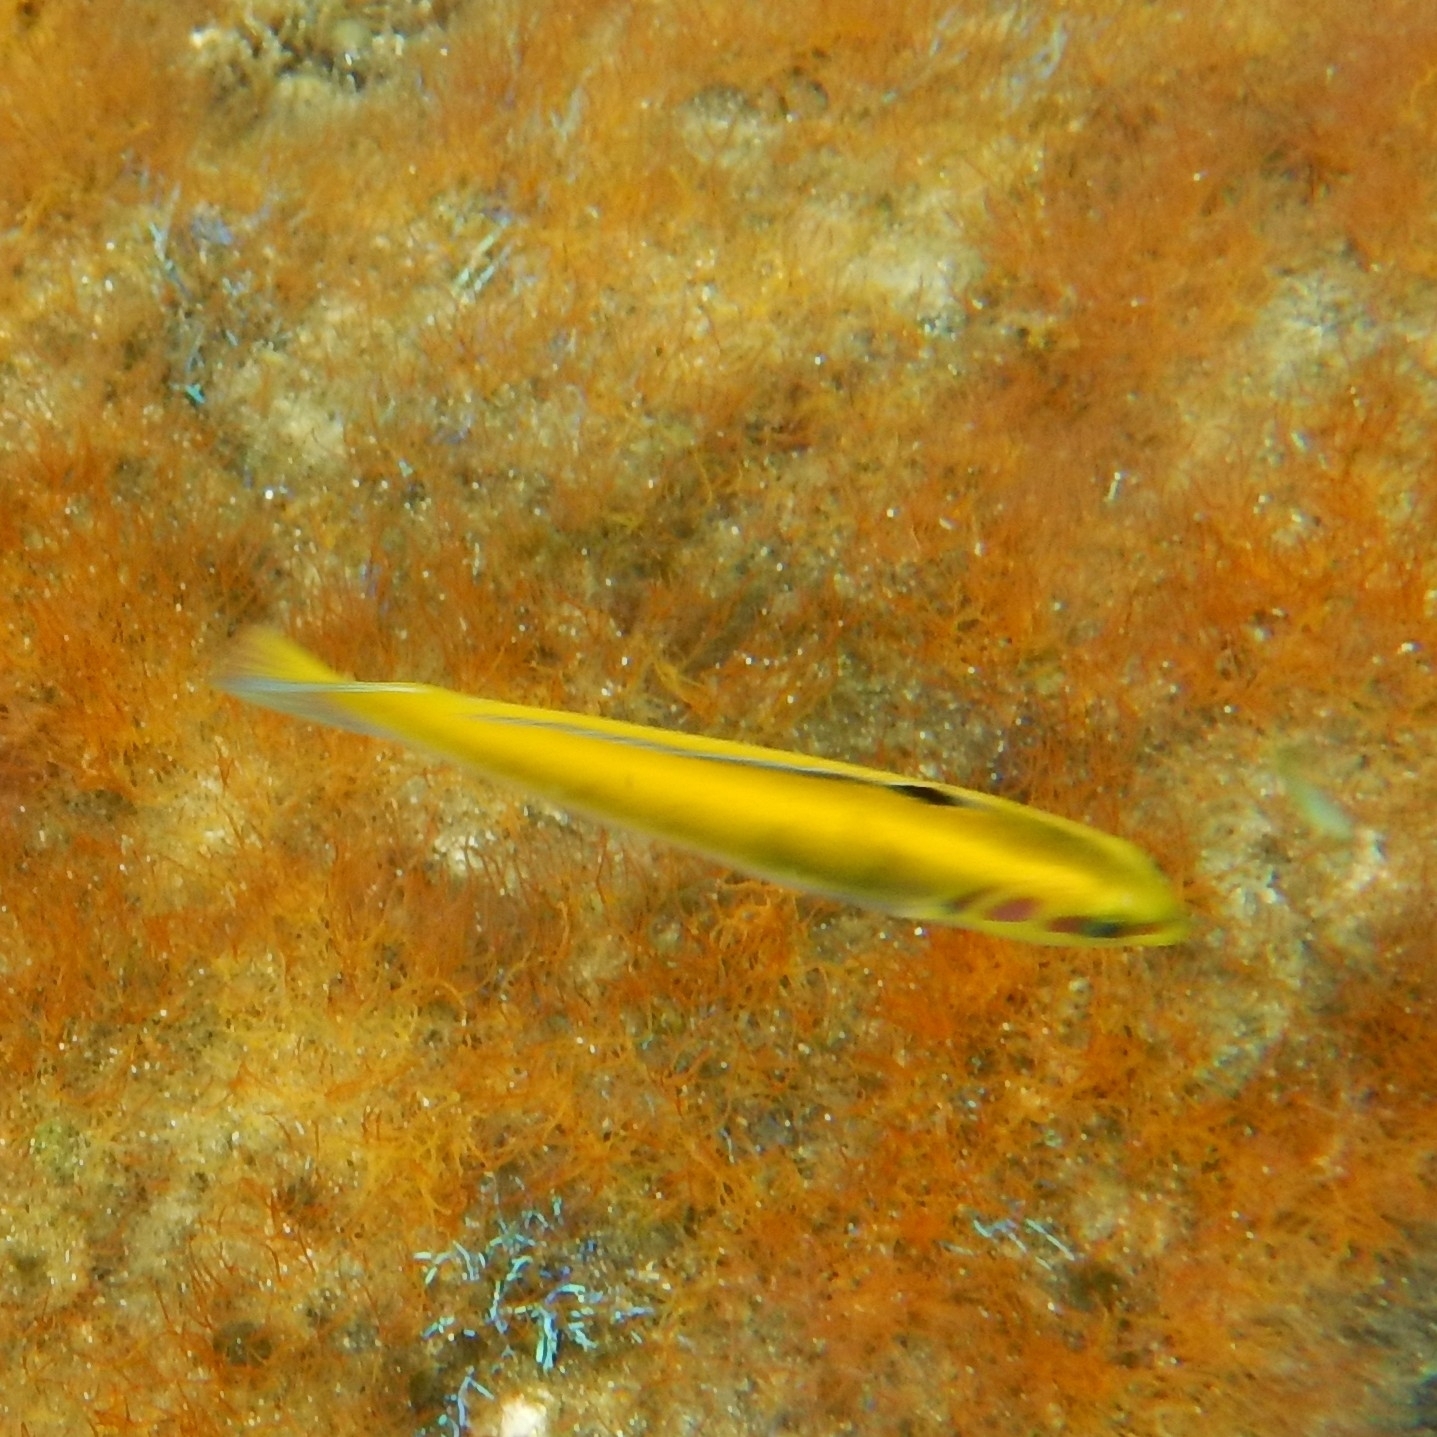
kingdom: Animalia
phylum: Chordata
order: Perciformes
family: Labridae
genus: Thalassoma
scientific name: Thalassoma bifasciatum
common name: Bluehead wrasse
